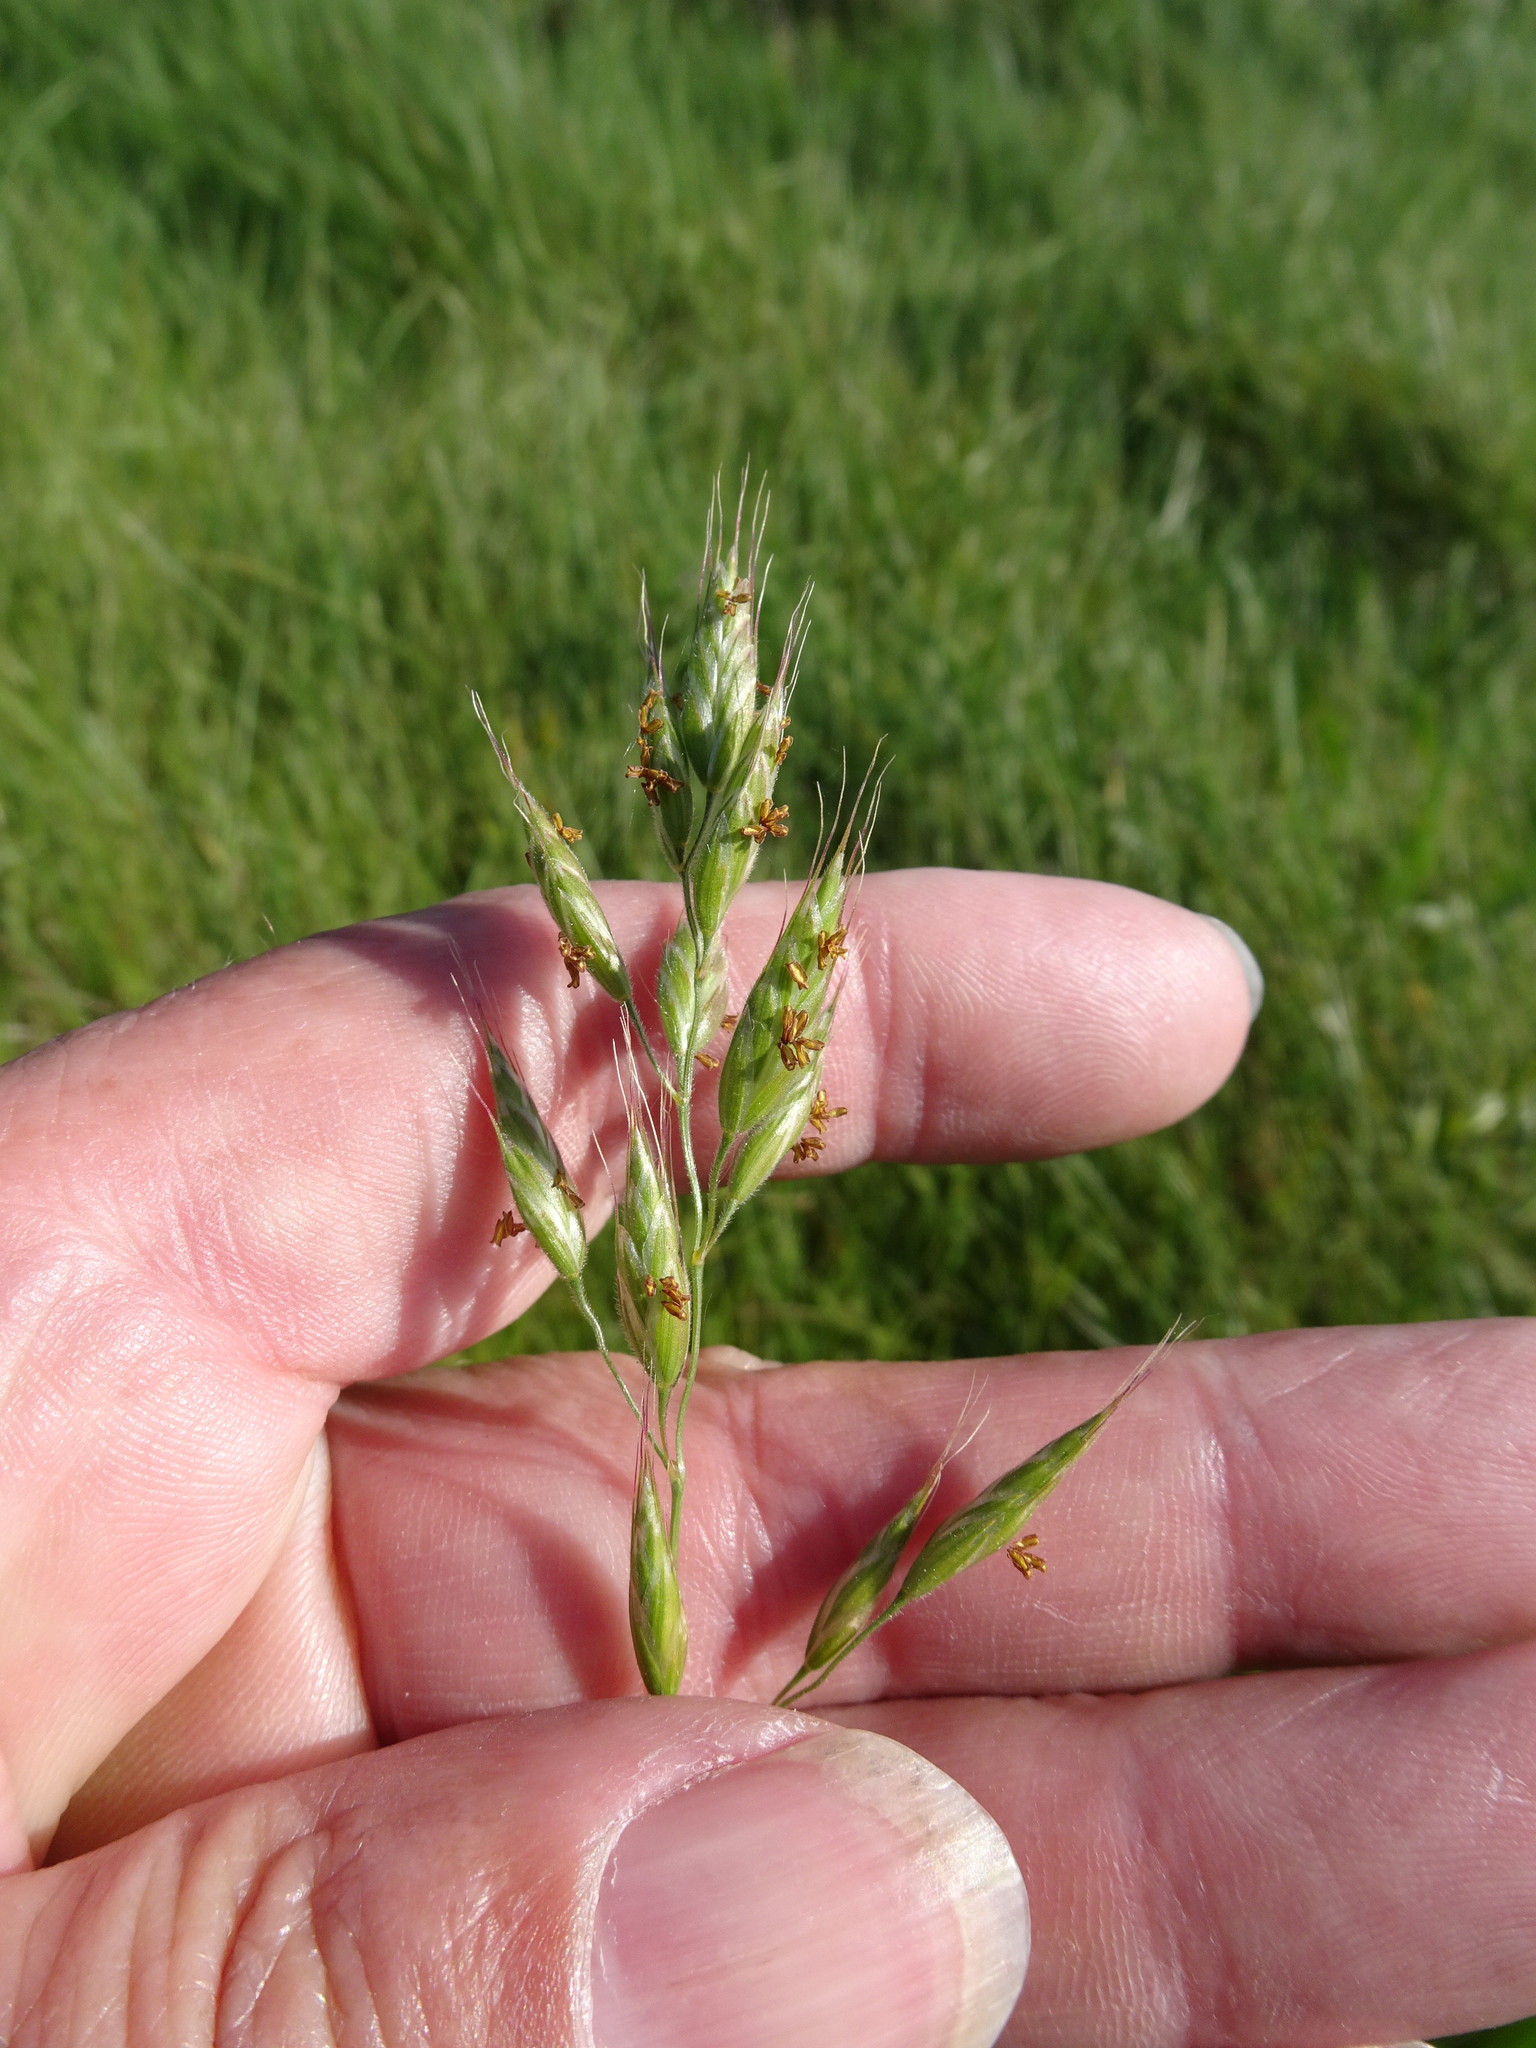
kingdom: Plantae
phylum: Tracheophyta
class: Liliopsida
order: Poales
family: Poaceae
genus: Bromus
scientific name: Bromus hordeaceus
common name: Soft brome
